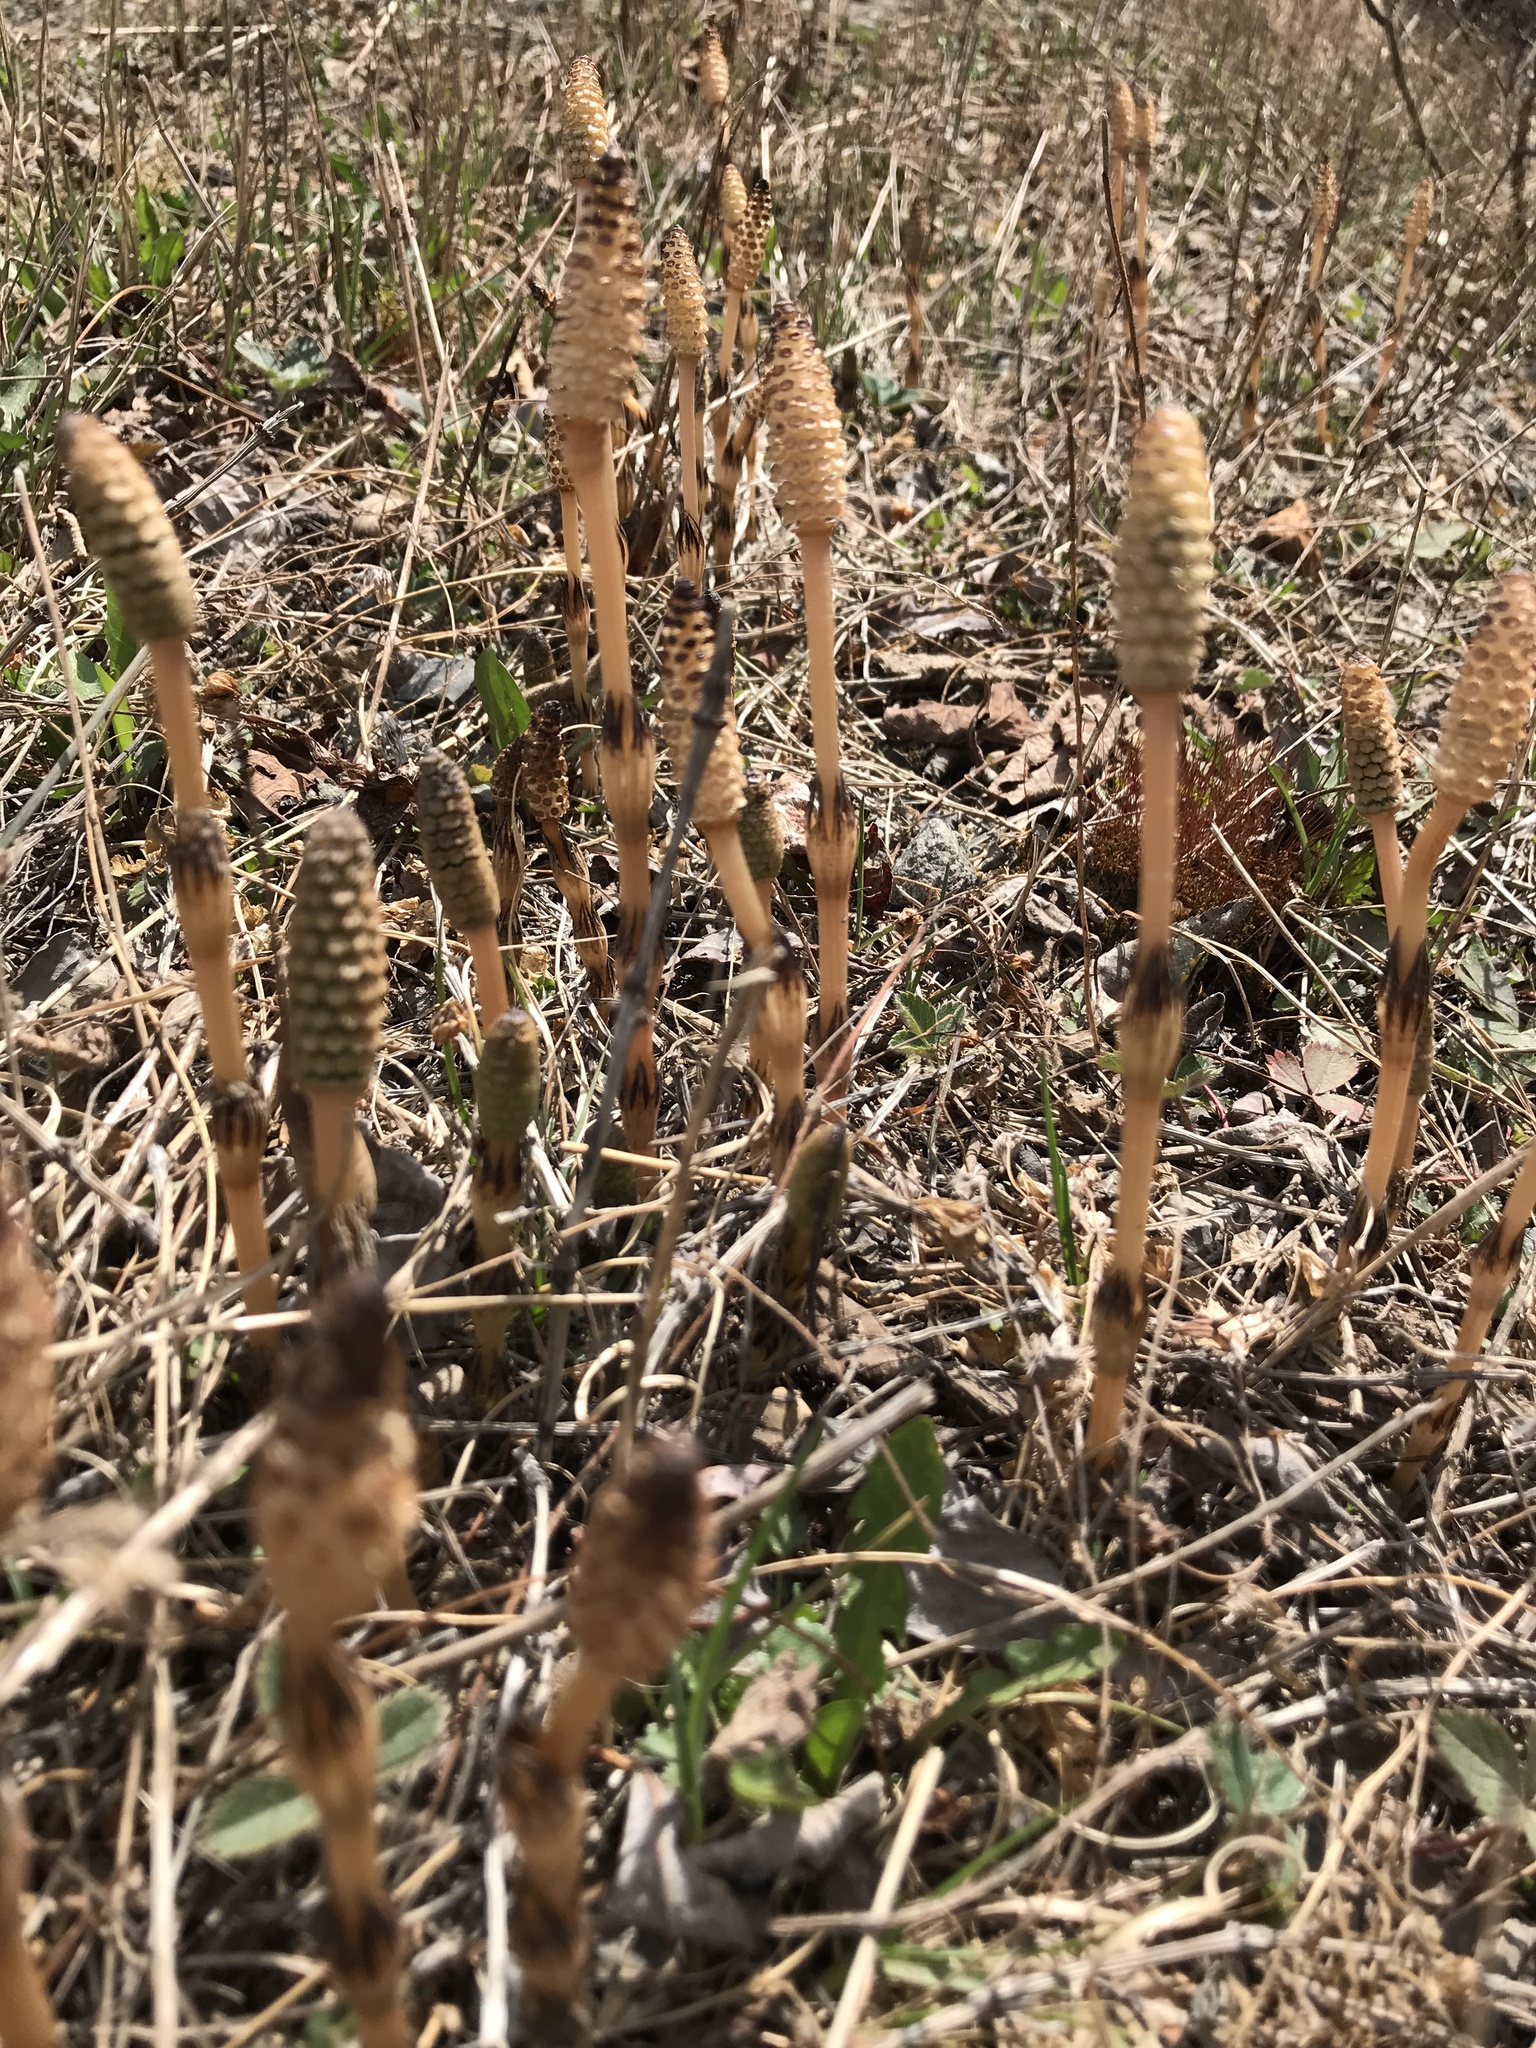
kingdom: Plantae
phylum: Tracheophyta
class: Polypodiopsida
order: Equisetales
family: Equisetaceae
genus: Equisetum
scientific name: Equisetum arvense
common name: Field horsetail
